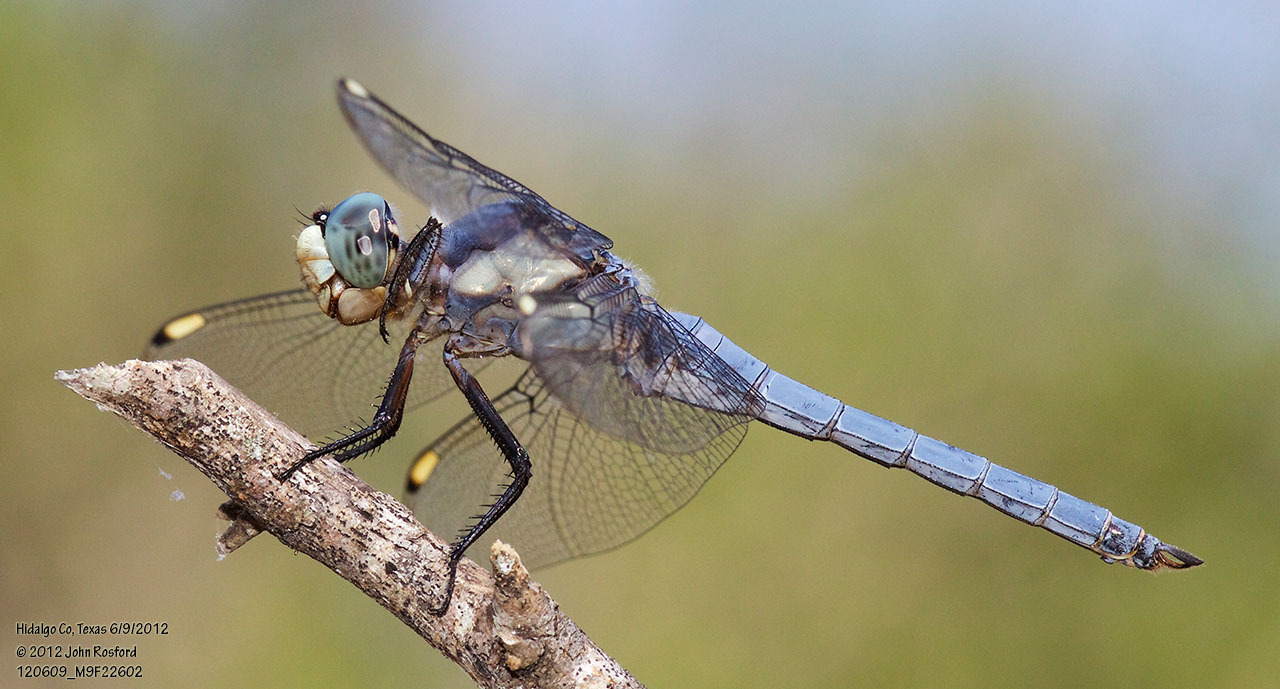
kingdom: Animalia
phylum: Arthropoda
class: Insecta
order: Odonata
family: Libellulidae
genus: Libellula
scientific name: Libellula comanche
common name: Comanche skimmer
